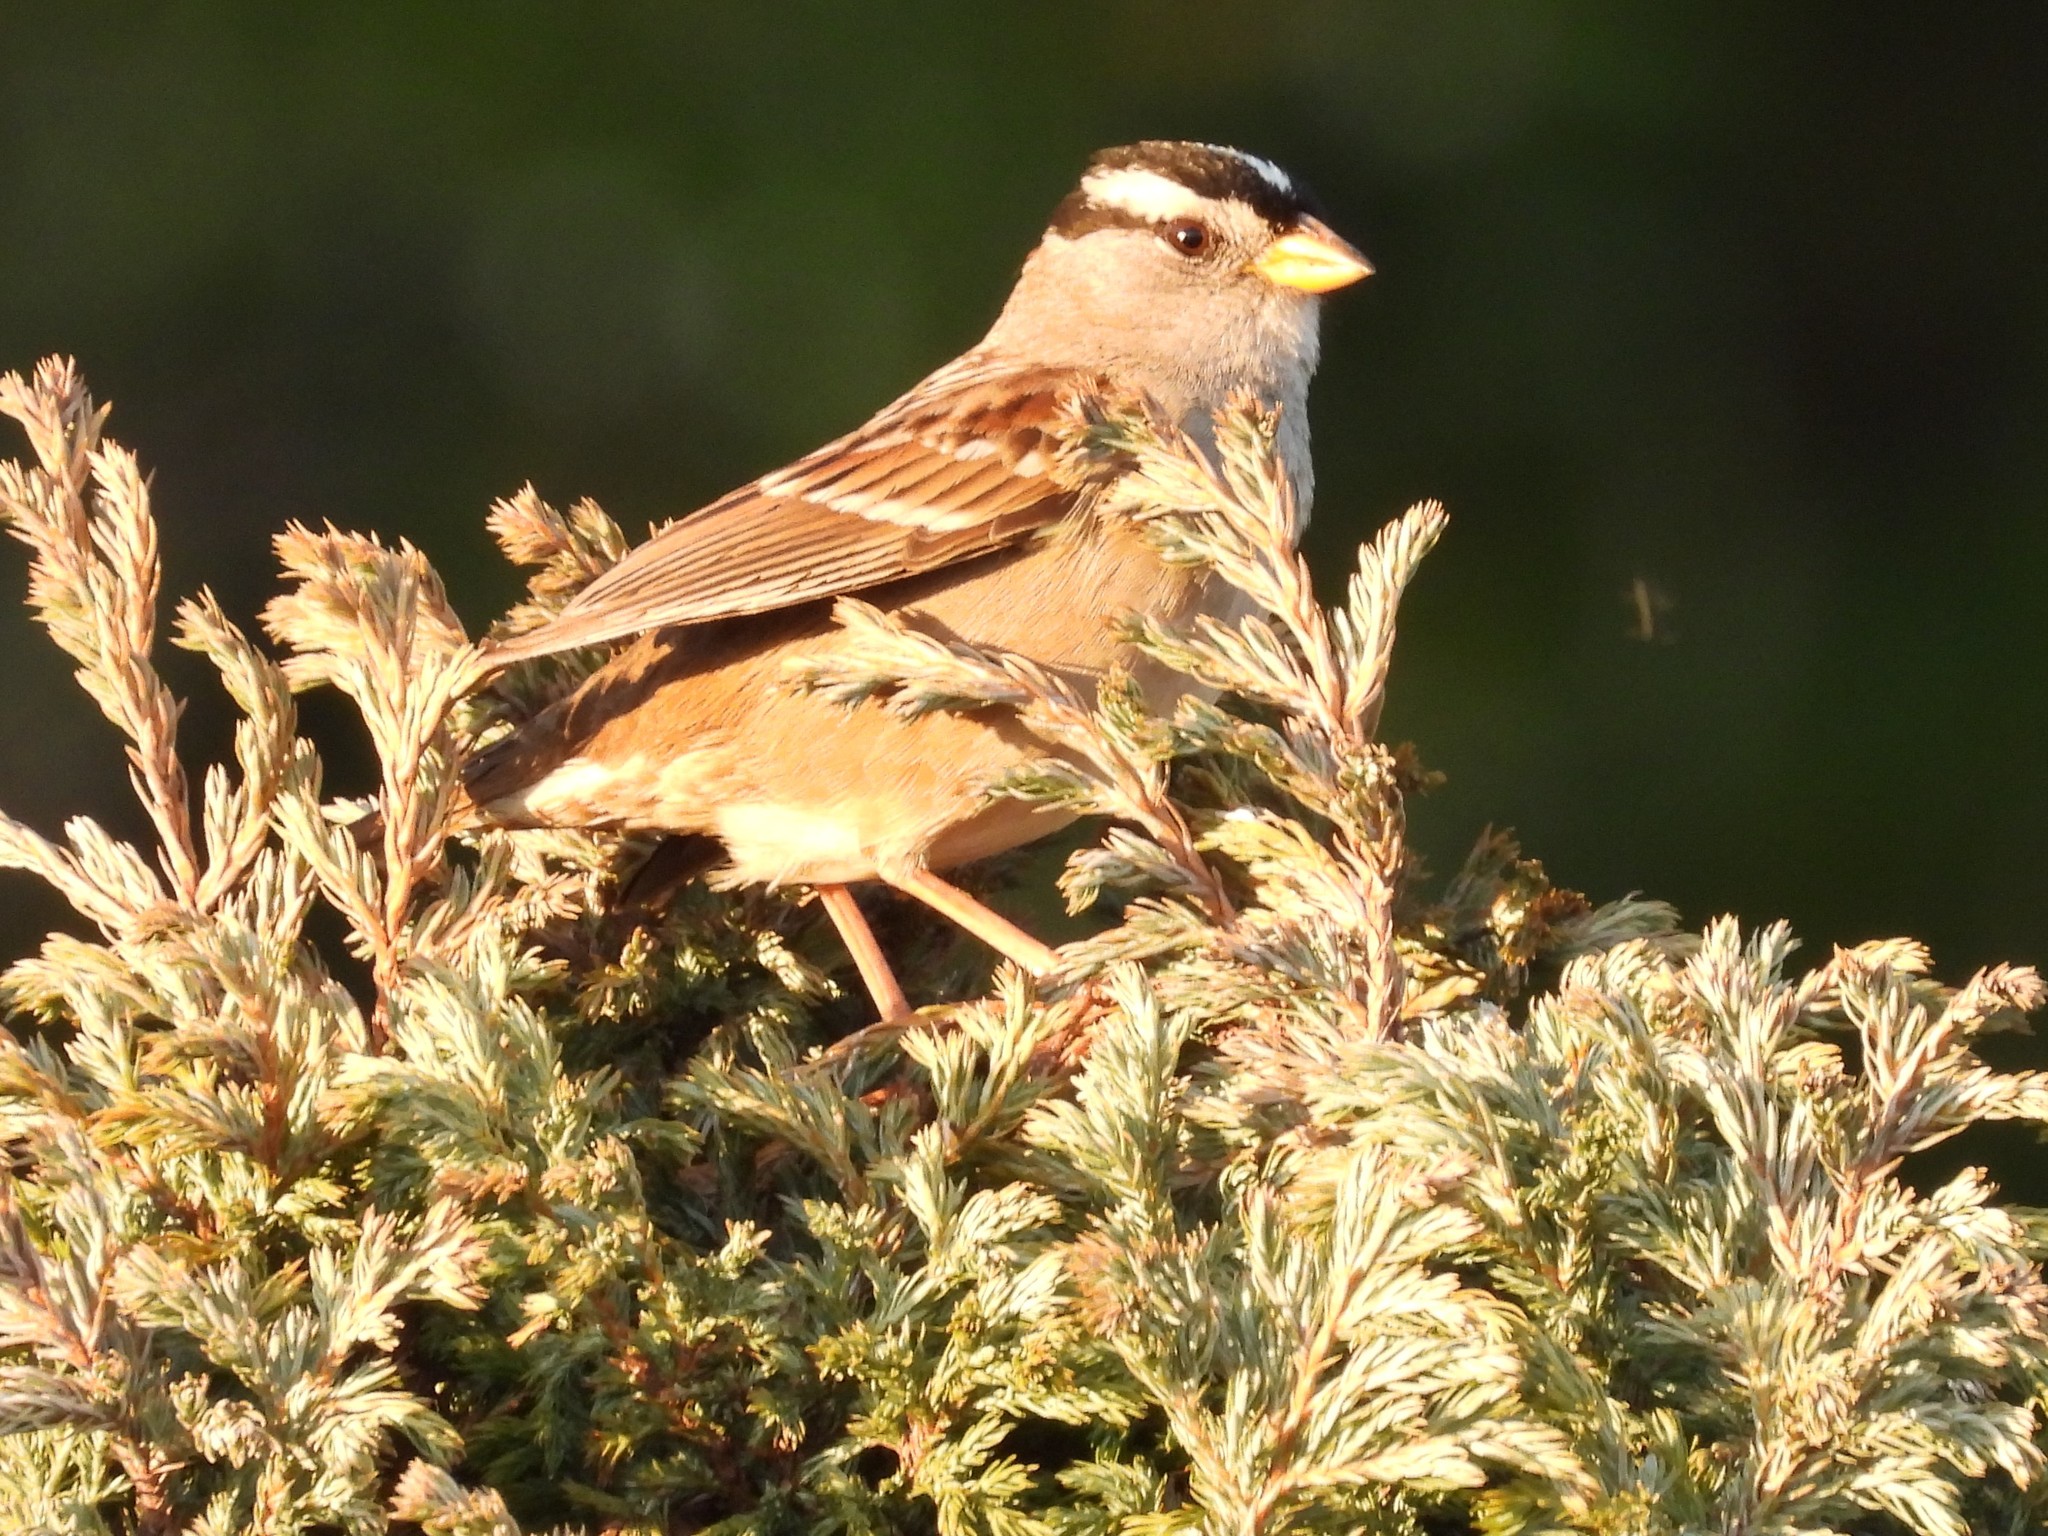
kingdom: Animalia
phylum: Chordata
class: Aves
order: Passeriformes
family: Passerellidae
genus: Zonotrichia
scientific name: Zonotrichia leucophrys
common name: White-crowned sparrow
